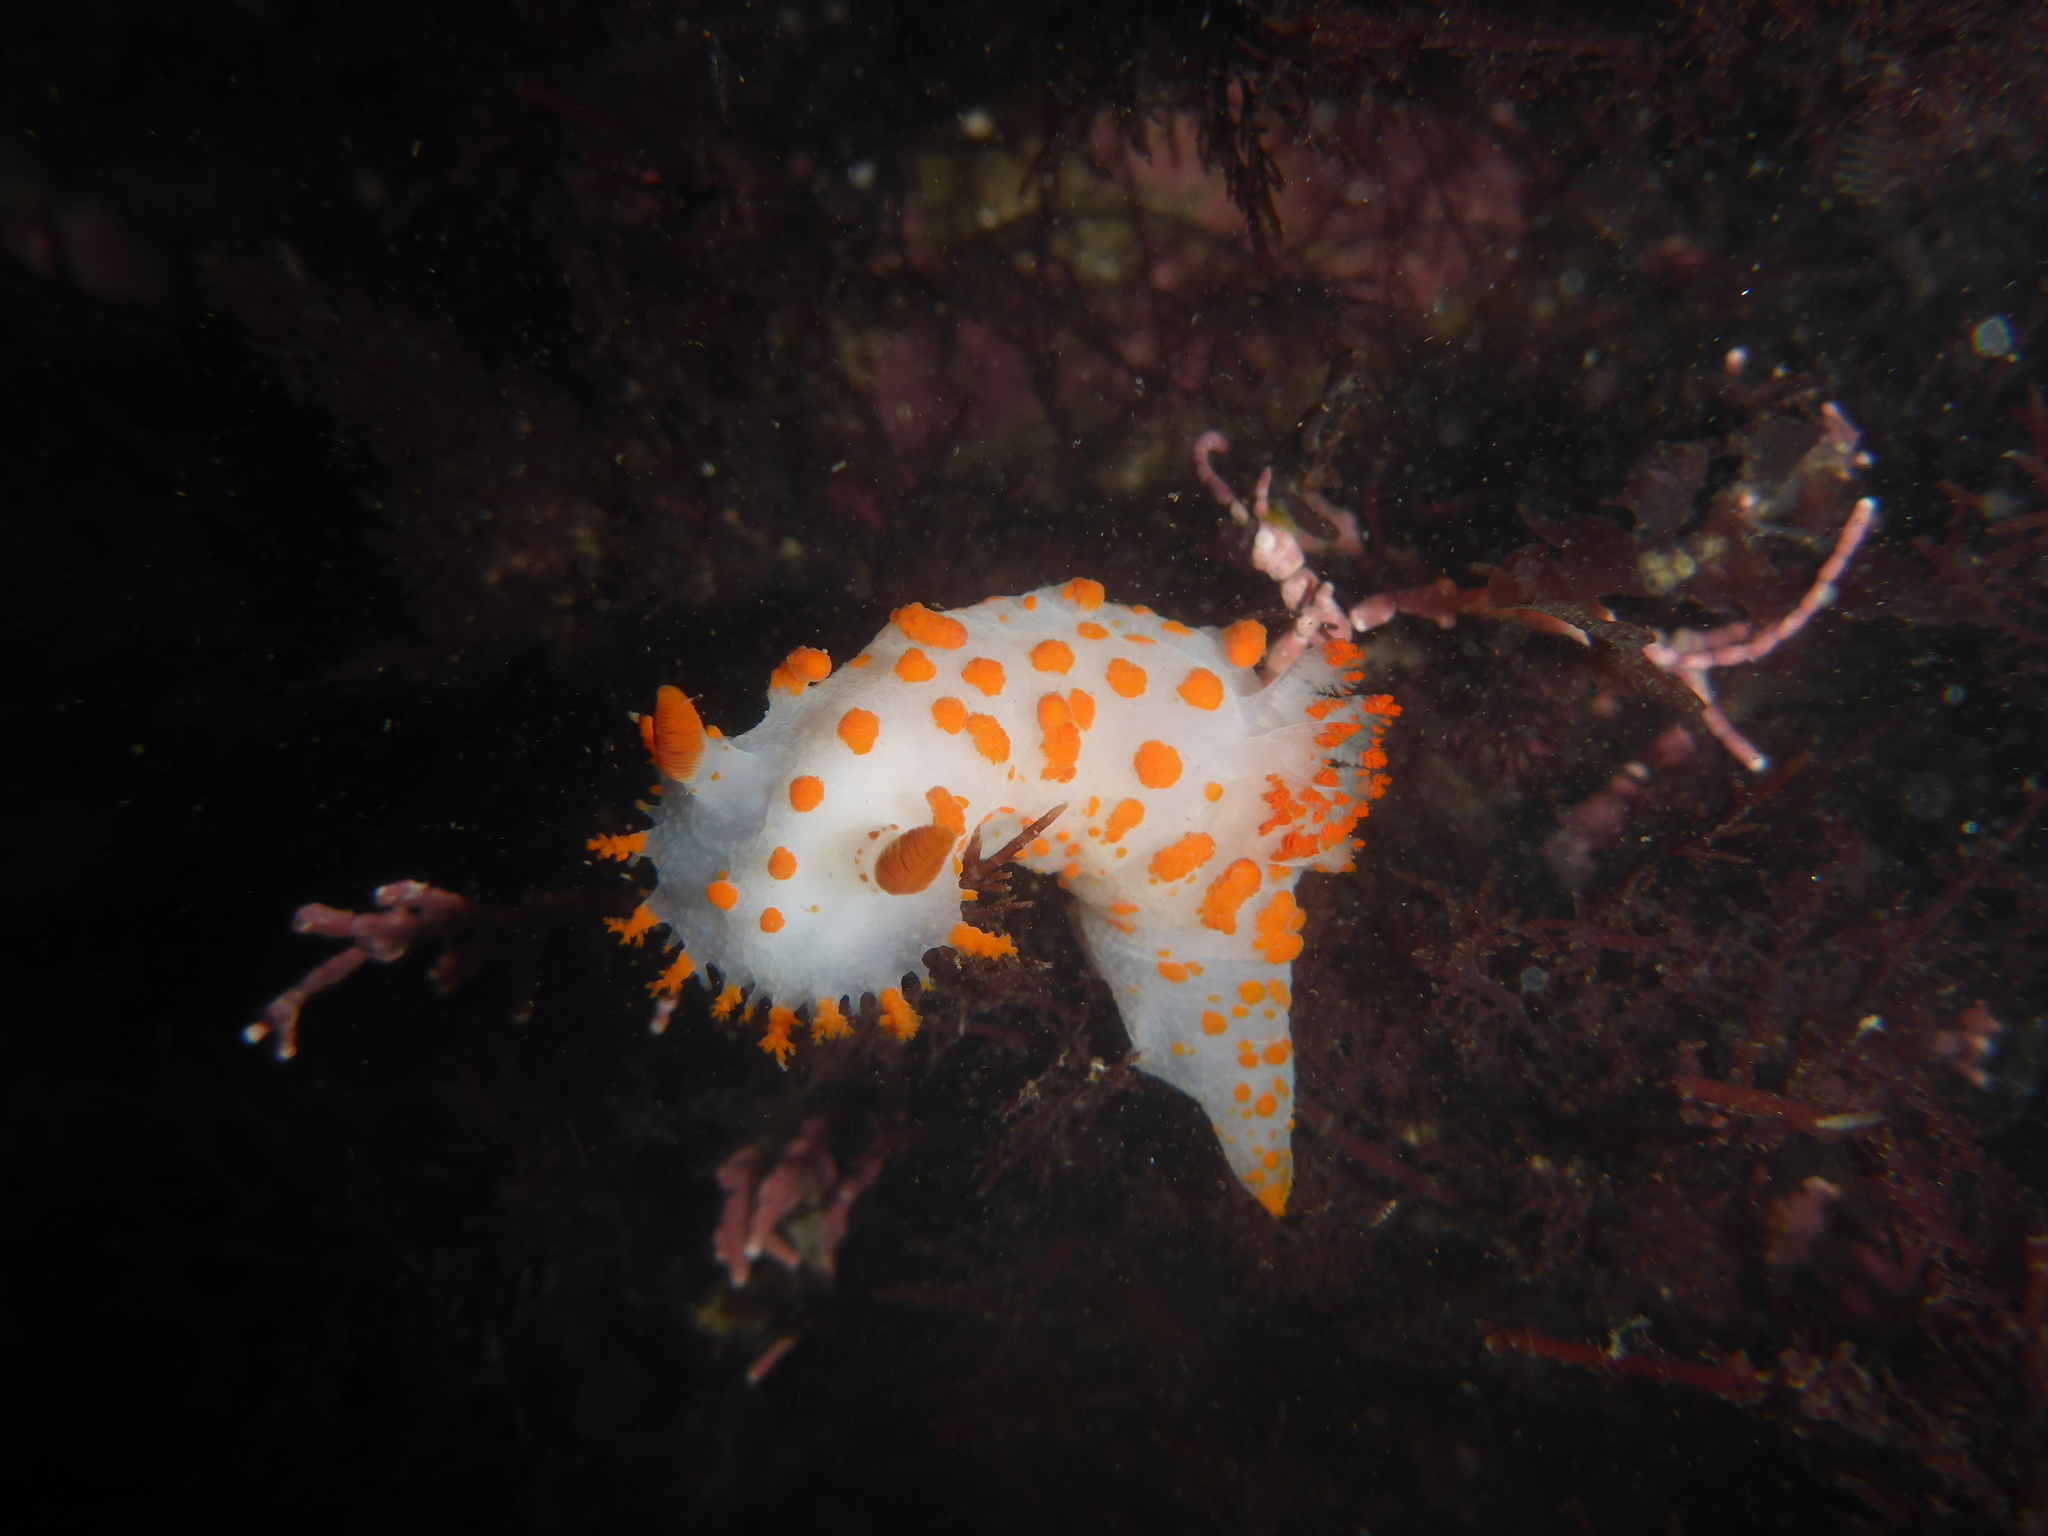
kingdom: Animalia
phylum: Mollusca
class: Gastropoda
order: Nudibranchia
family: Polyceridae
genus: Triopha
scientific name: Triopha catalinae
